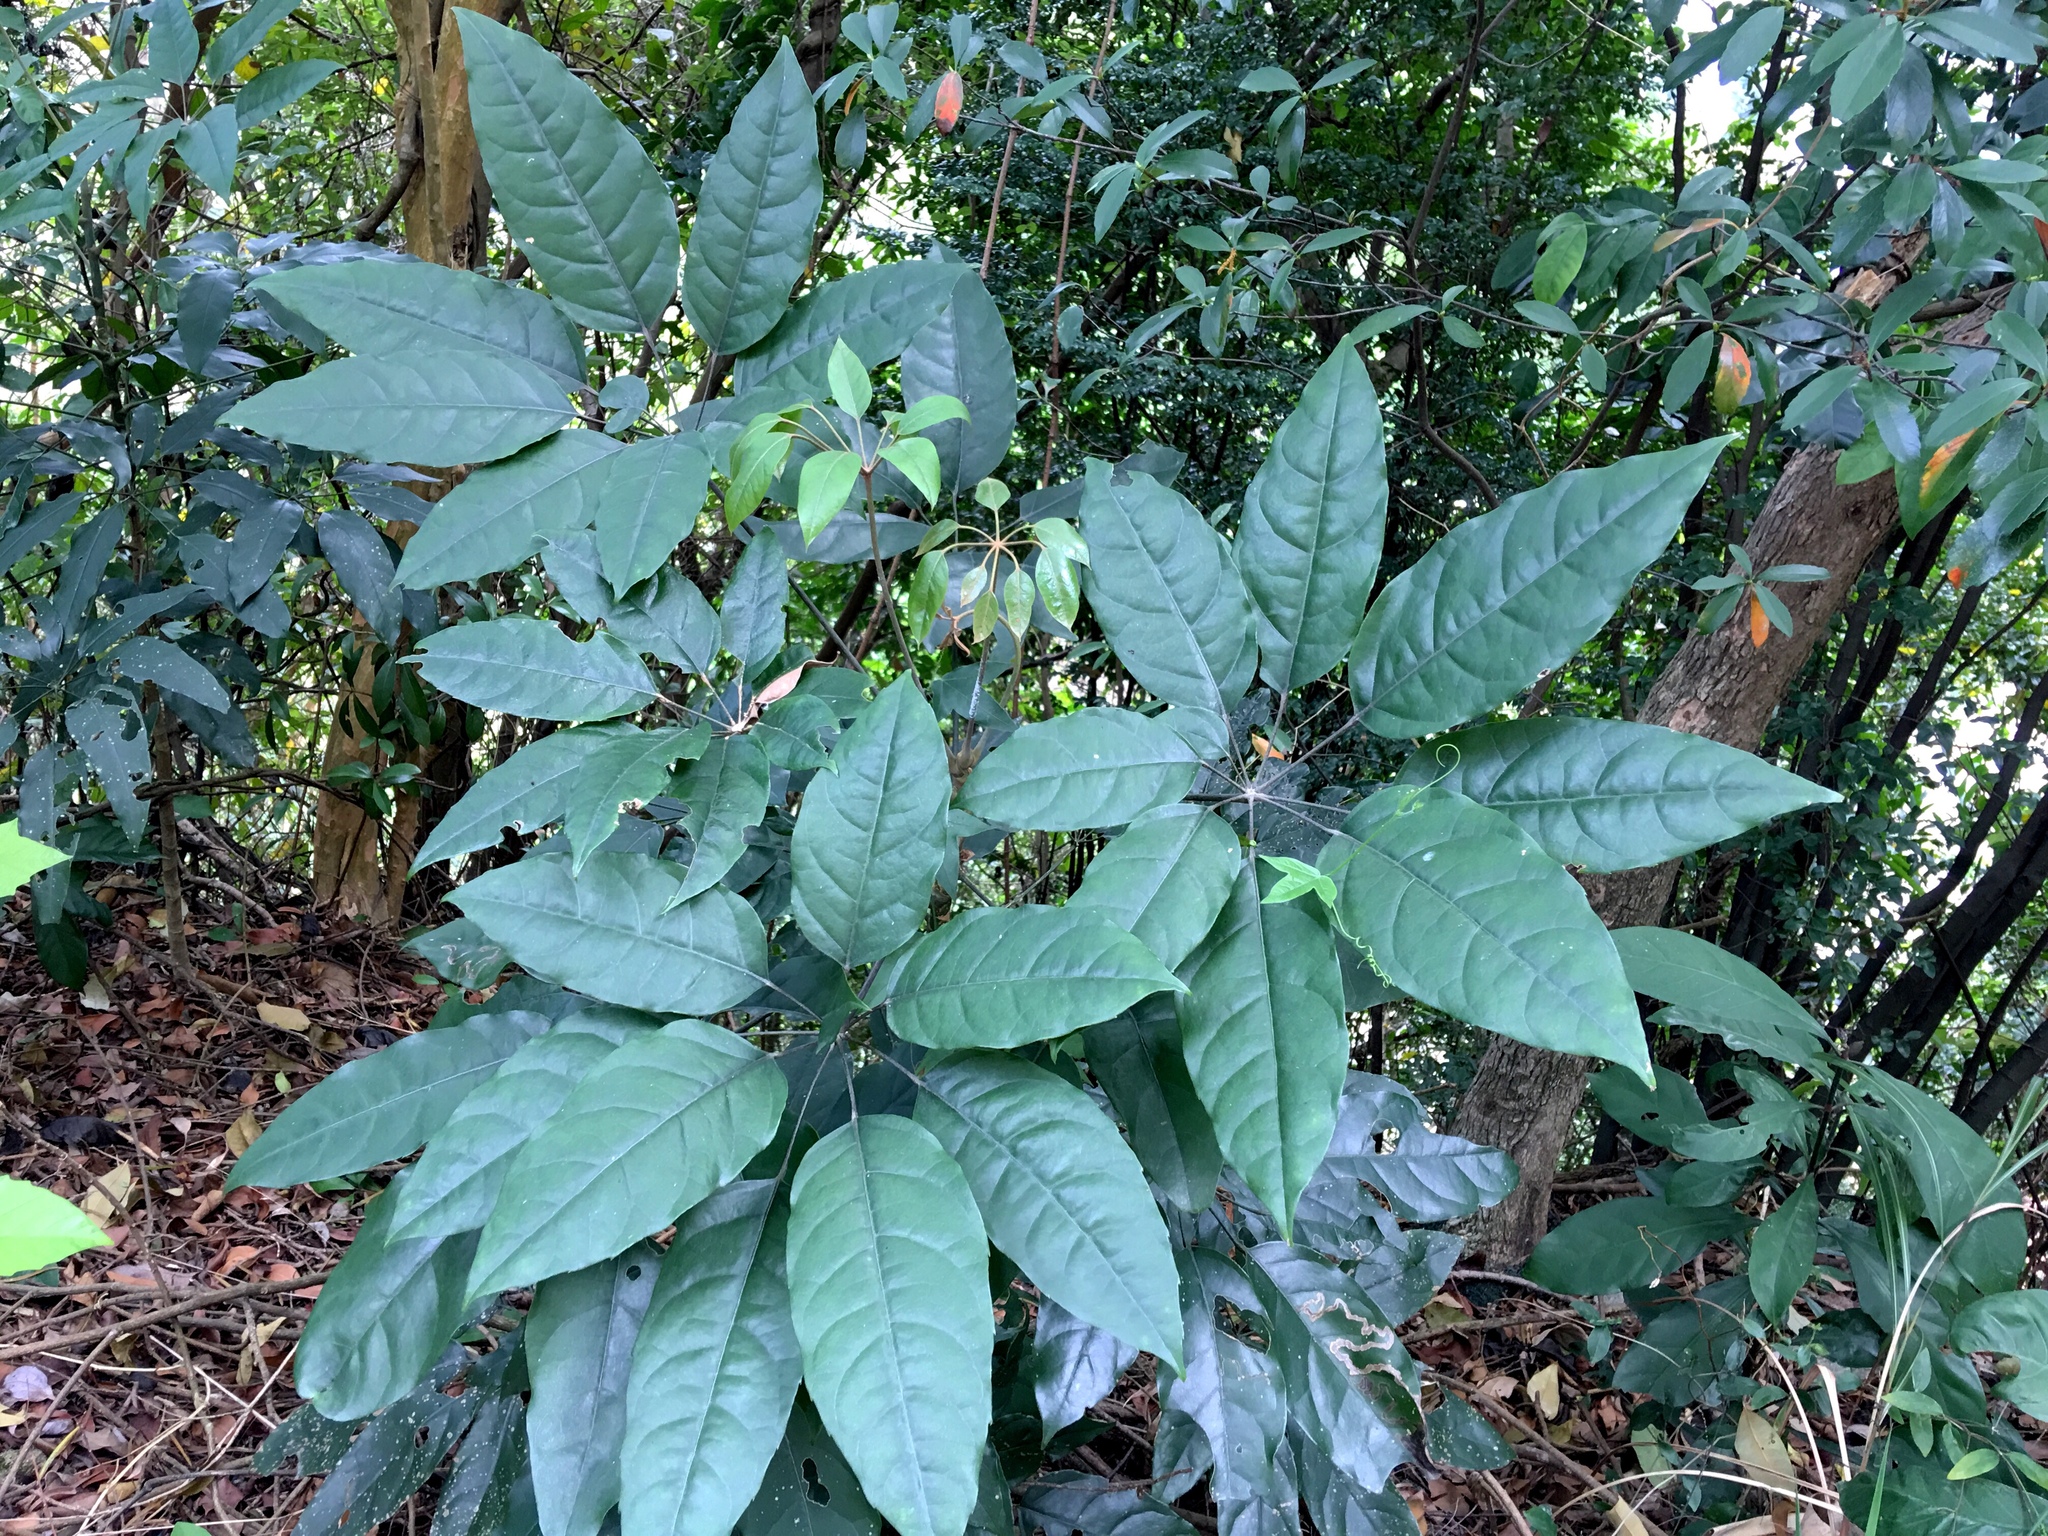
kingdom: Plantae
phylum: Tracheophyta
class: Magnoliopsida
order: Apiales
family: Araliaceae
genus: Heptapleurum
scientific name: Heptapleurum heptaphyllum
